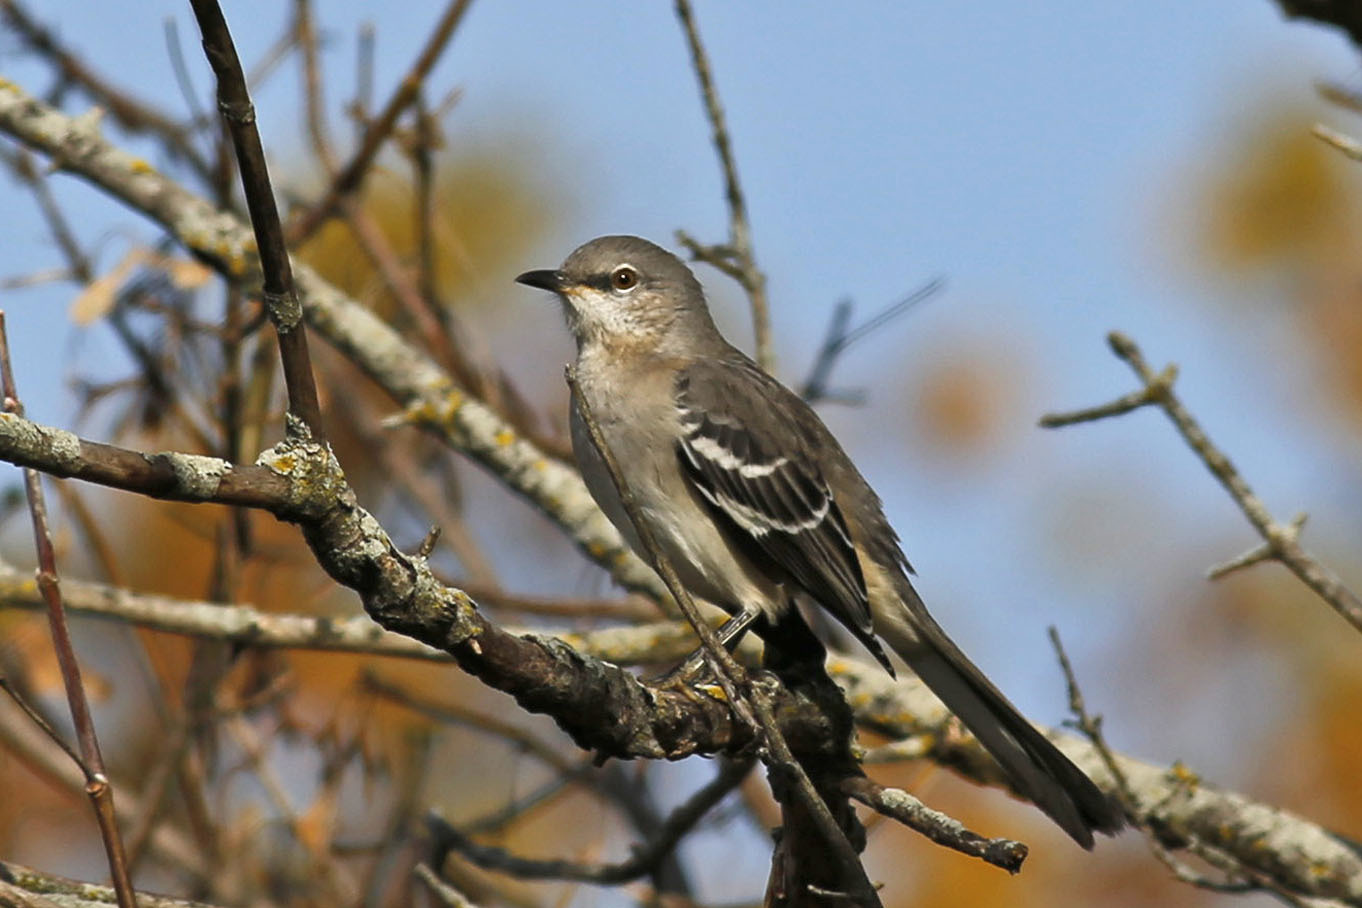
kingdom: Animalia
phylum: Chordata
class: Aves
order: Passeriformes
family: Mimidae
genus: Mimus
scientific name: Mimus polyglottos
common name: Northern mockingbird
